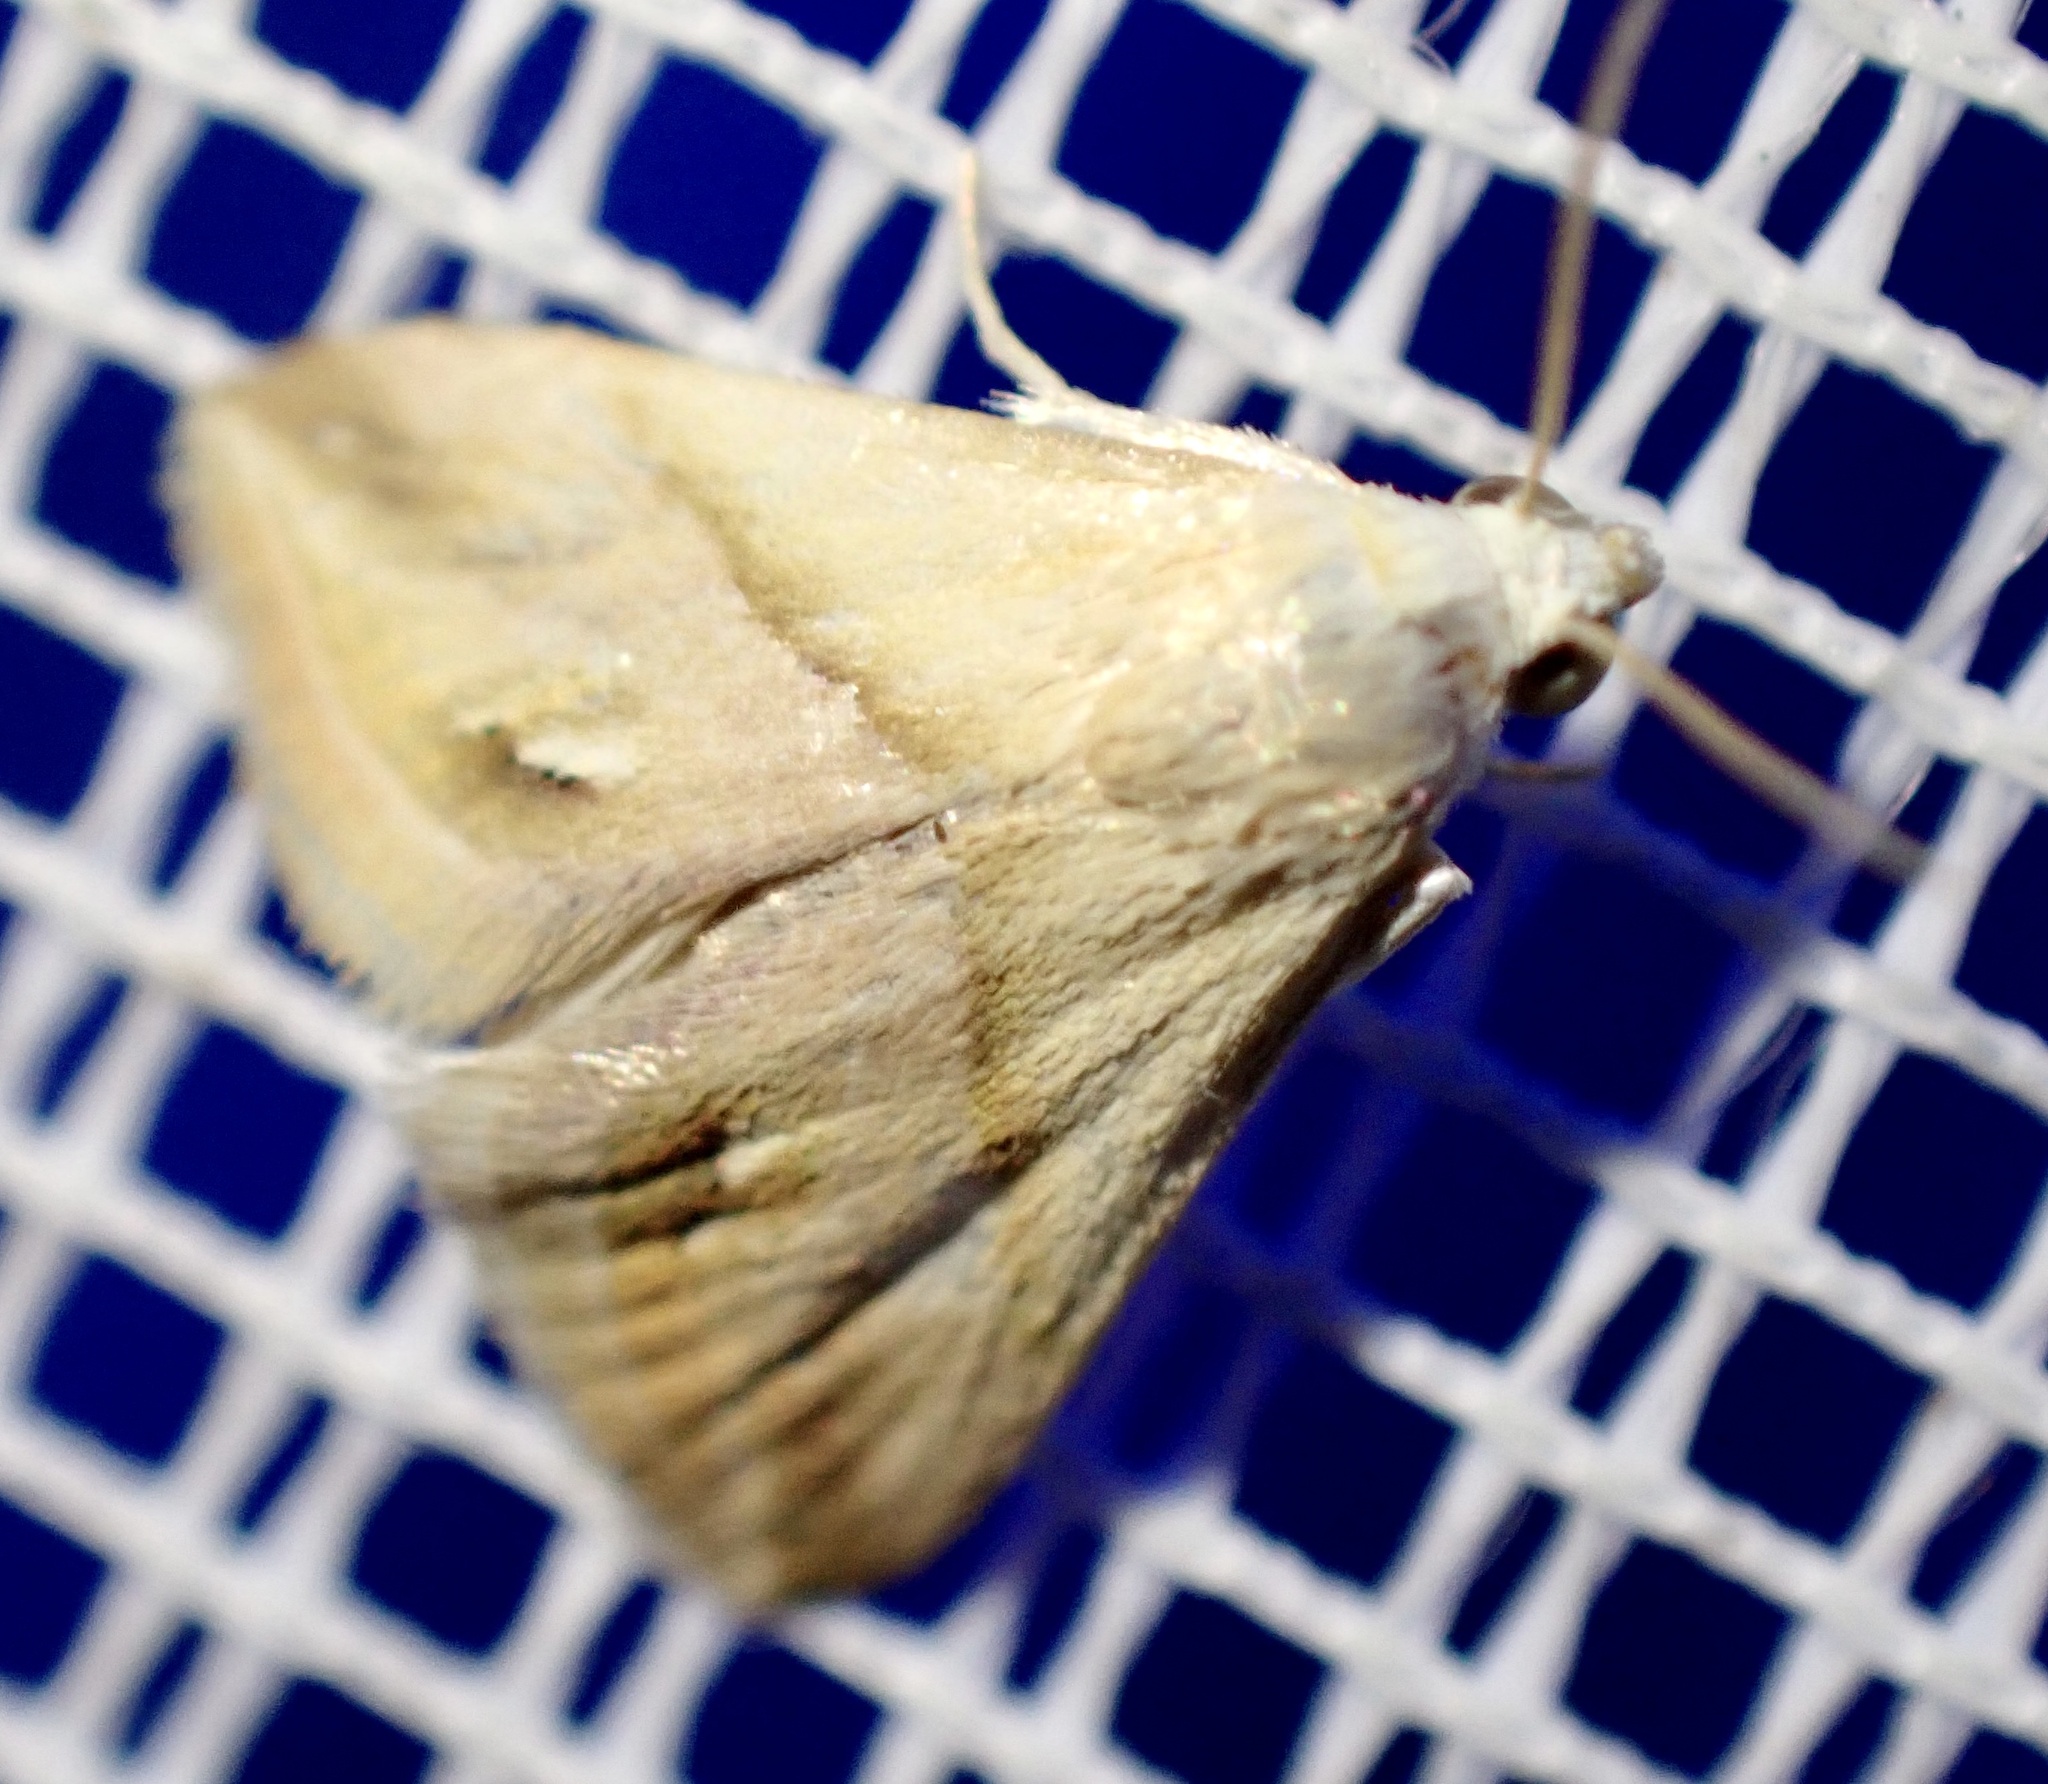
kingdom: Animalia
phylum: Arthropoda
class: Insecta
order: Lepidoptera
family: Noctuidae
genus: Eublemma
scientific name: Eublemma cochylioides
